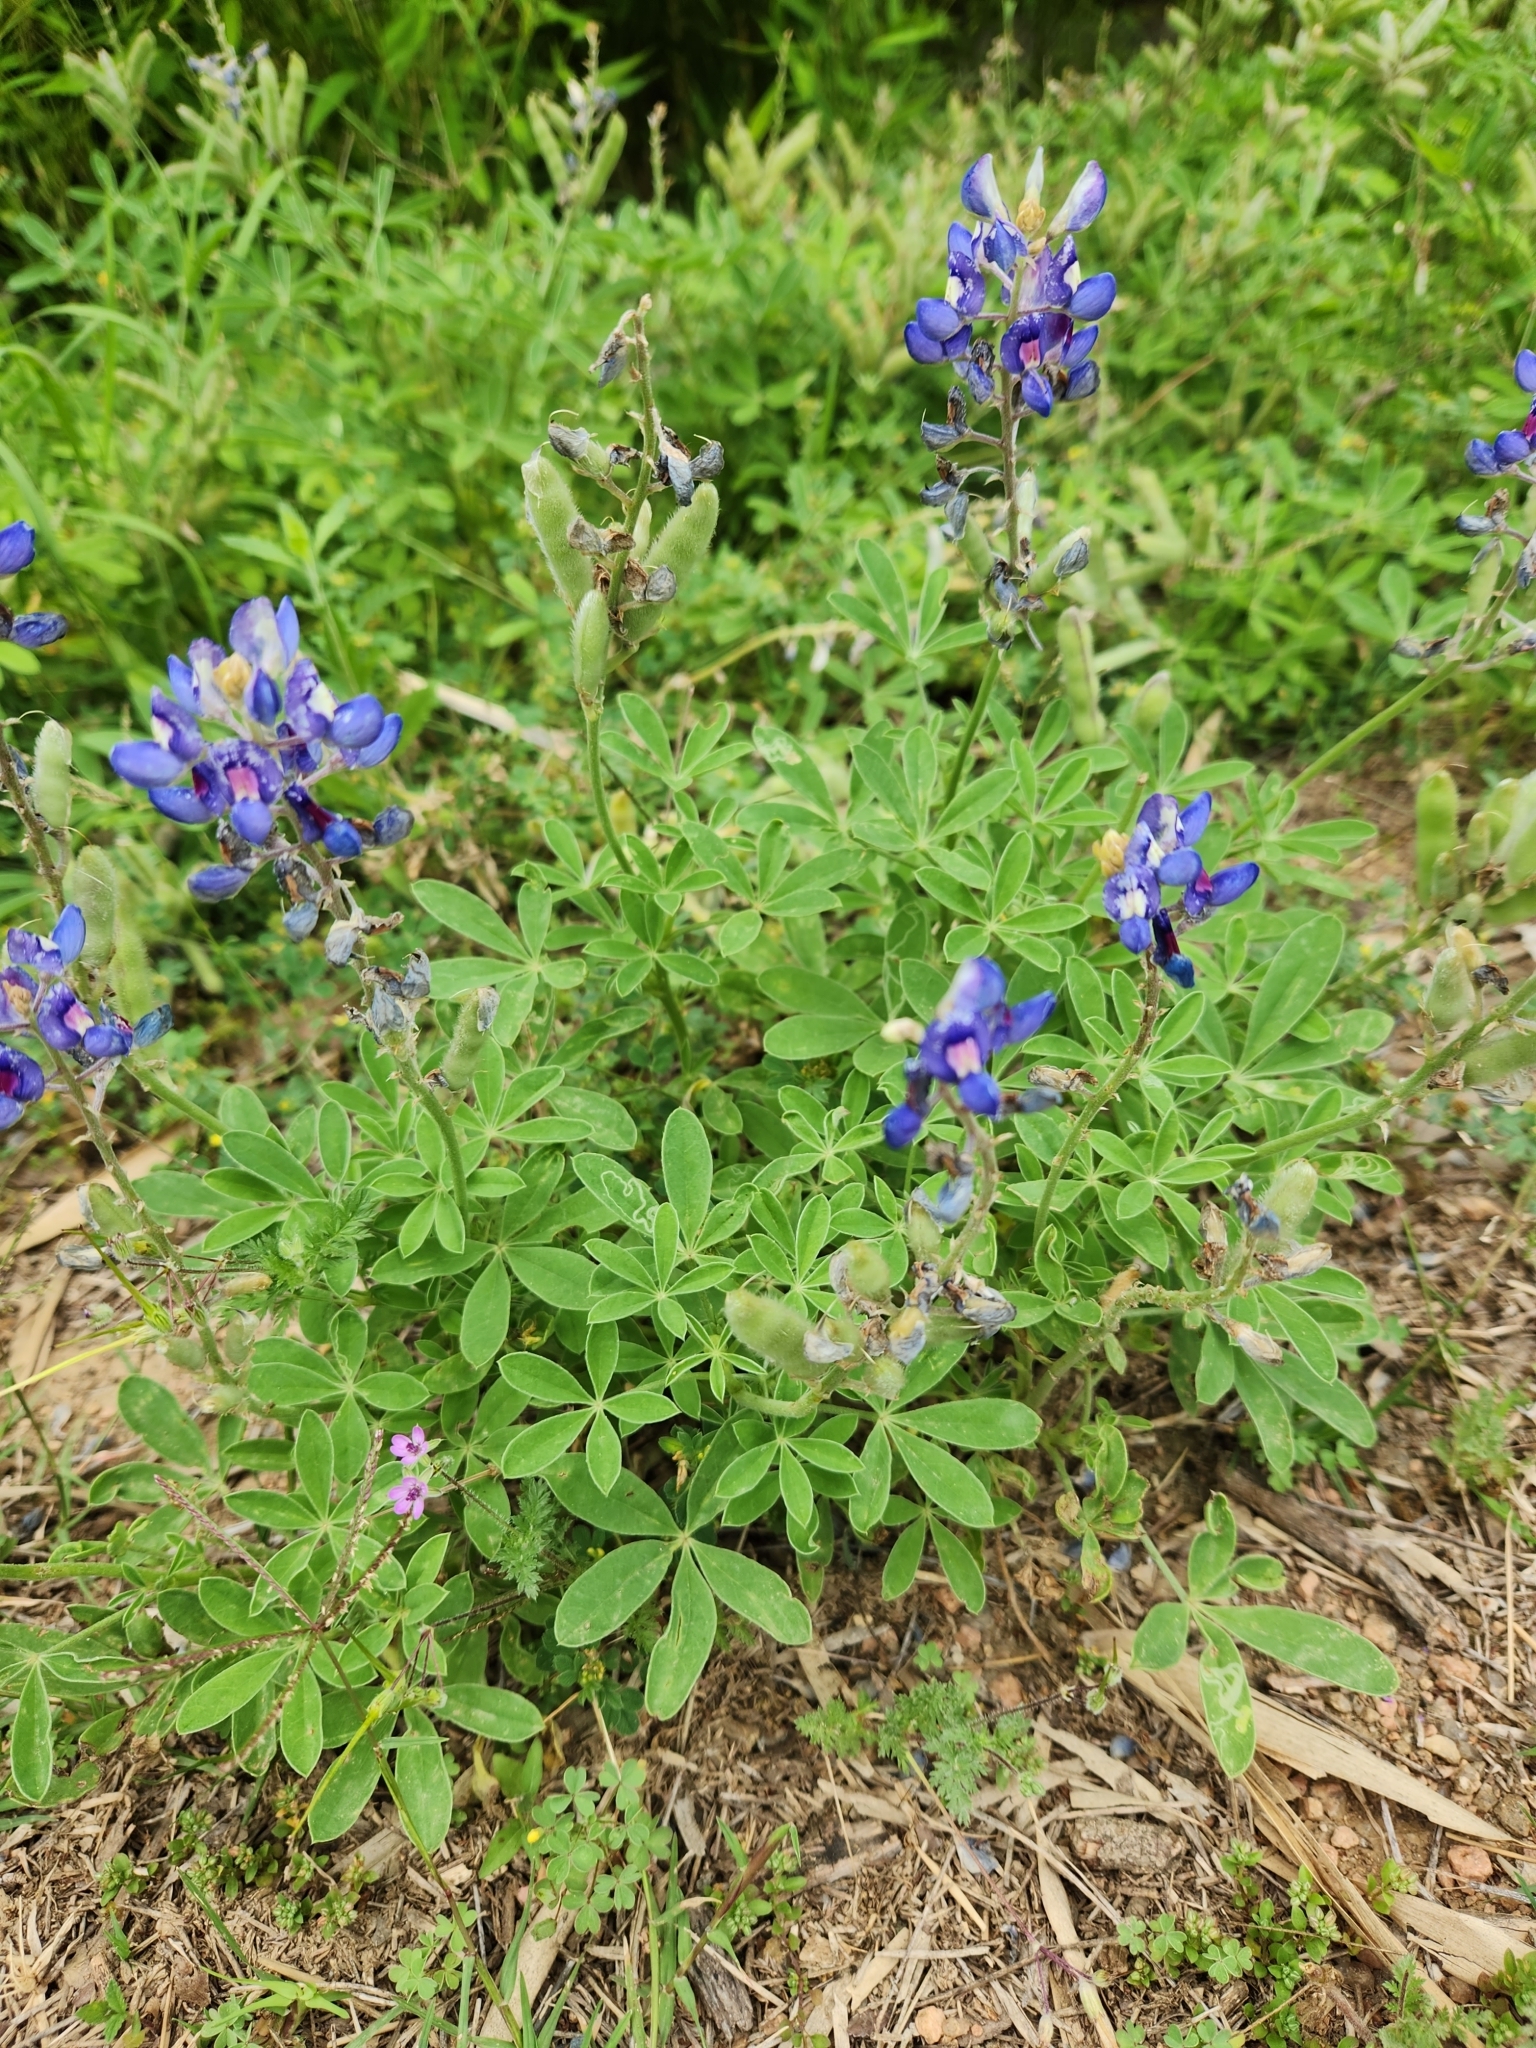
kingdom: Plantae
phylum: Tracheophyta
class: Magnoliopsida
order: Fabales
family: Fabaceae
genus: Lupinus
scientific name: Lupinus texensis
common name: Texas bluebonnet
